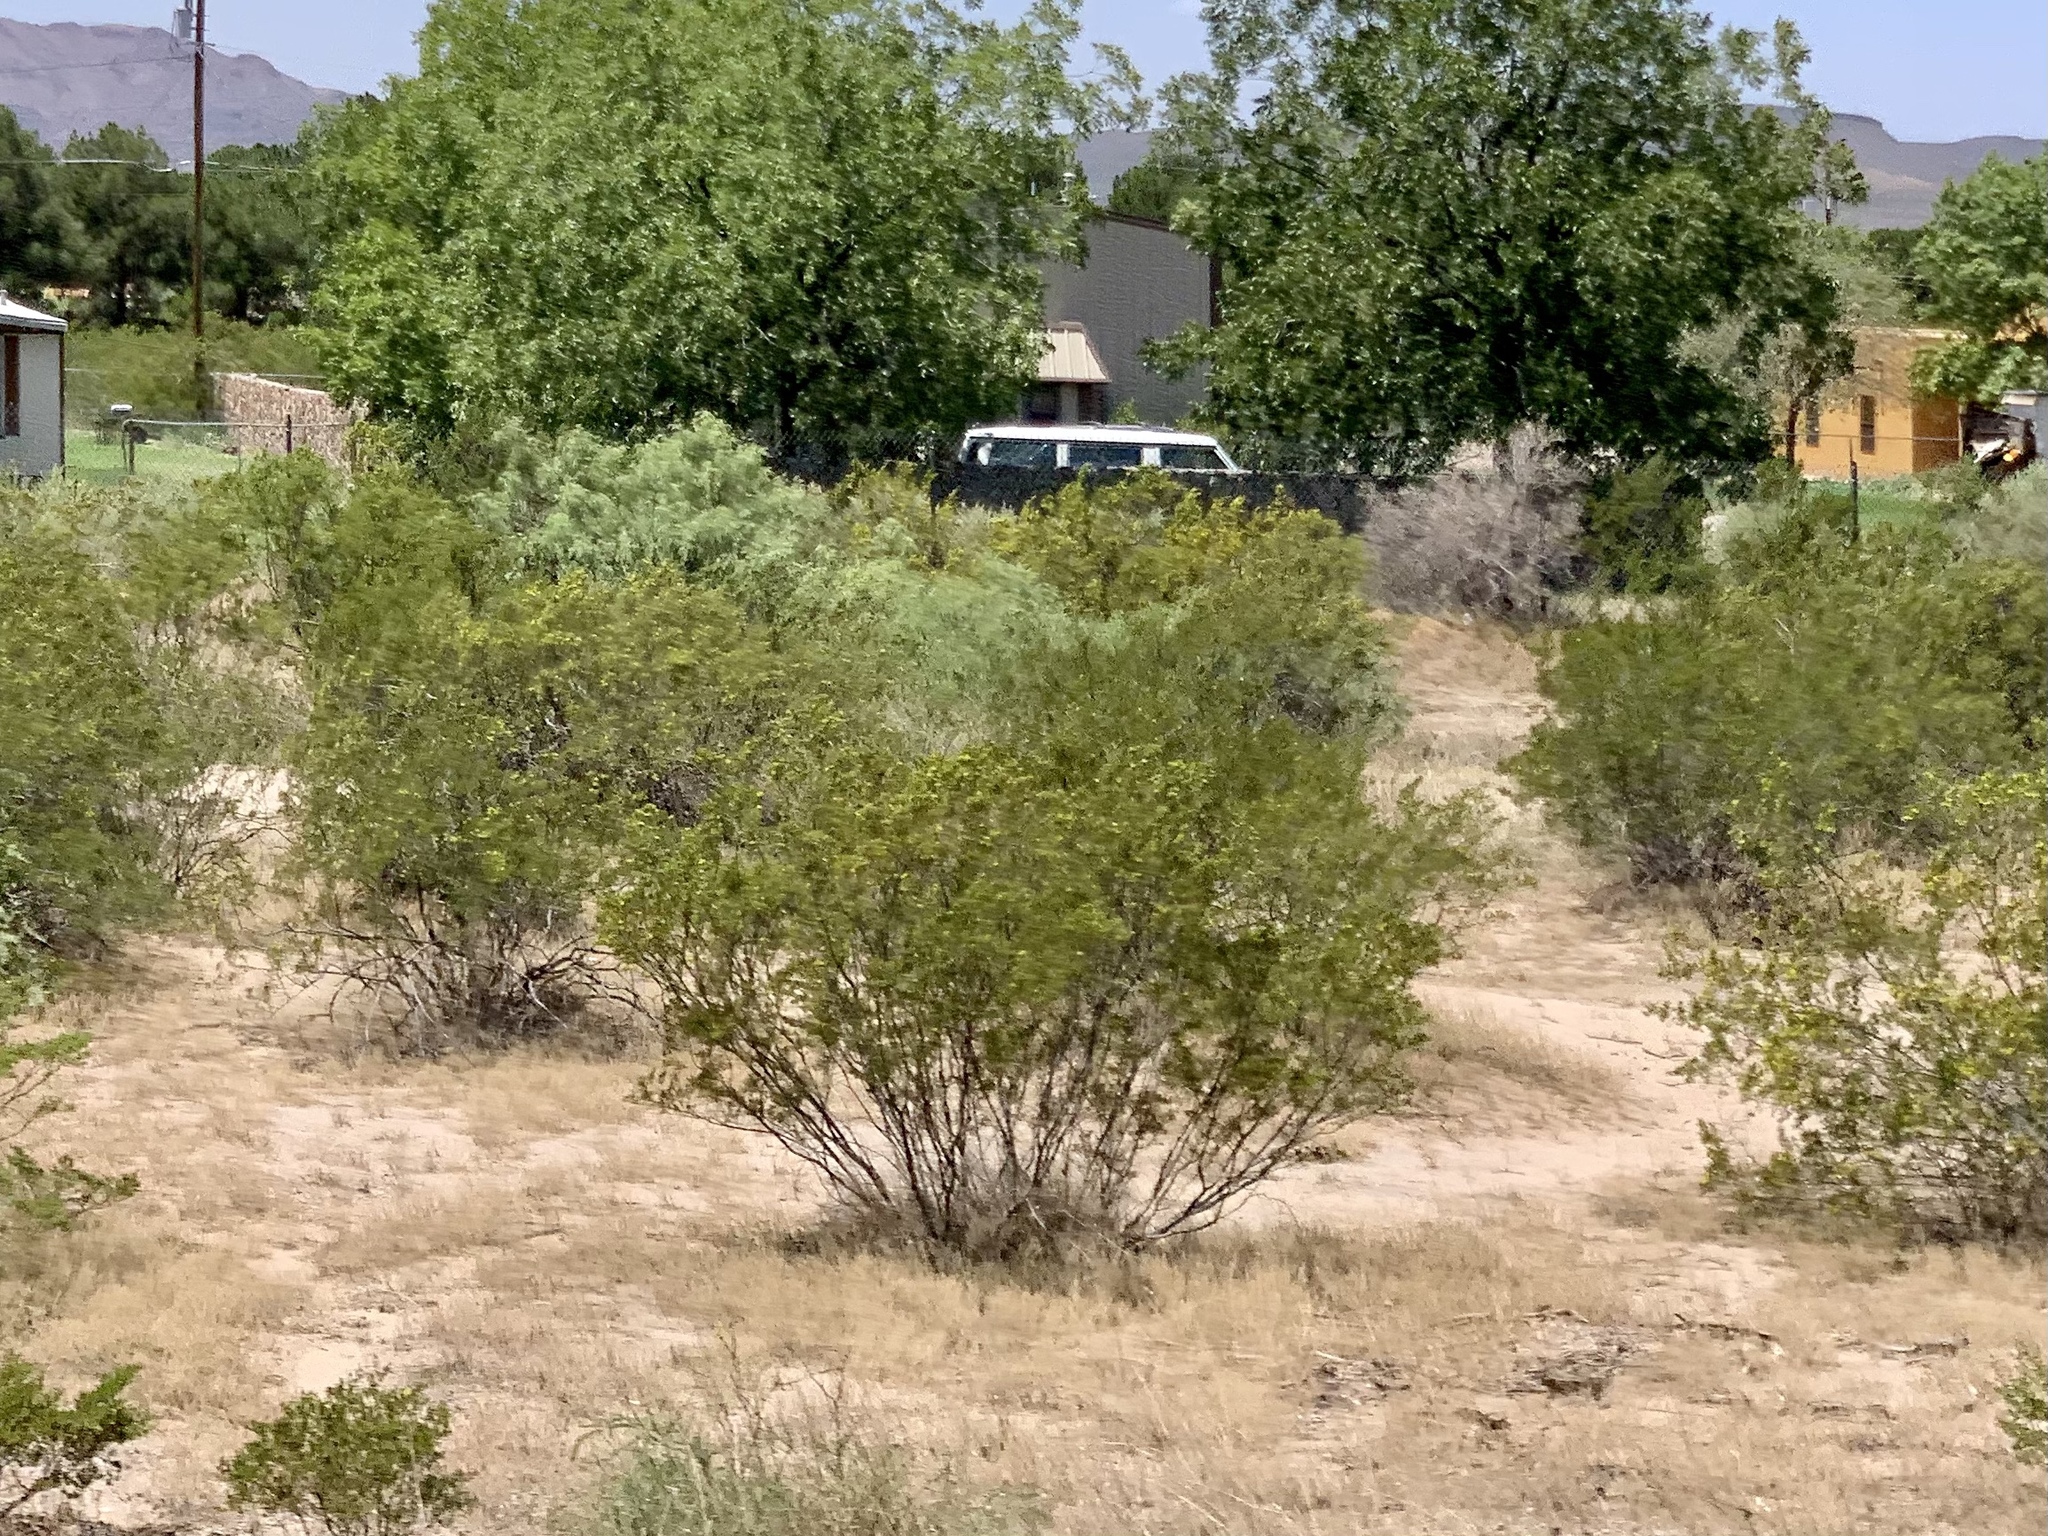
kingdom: Plantae
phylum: Tracheophyta
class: Magnoliopsida
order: Zygophyllales
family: Zygophyllaceae
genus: Larrea
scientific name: Larrea tridentata
